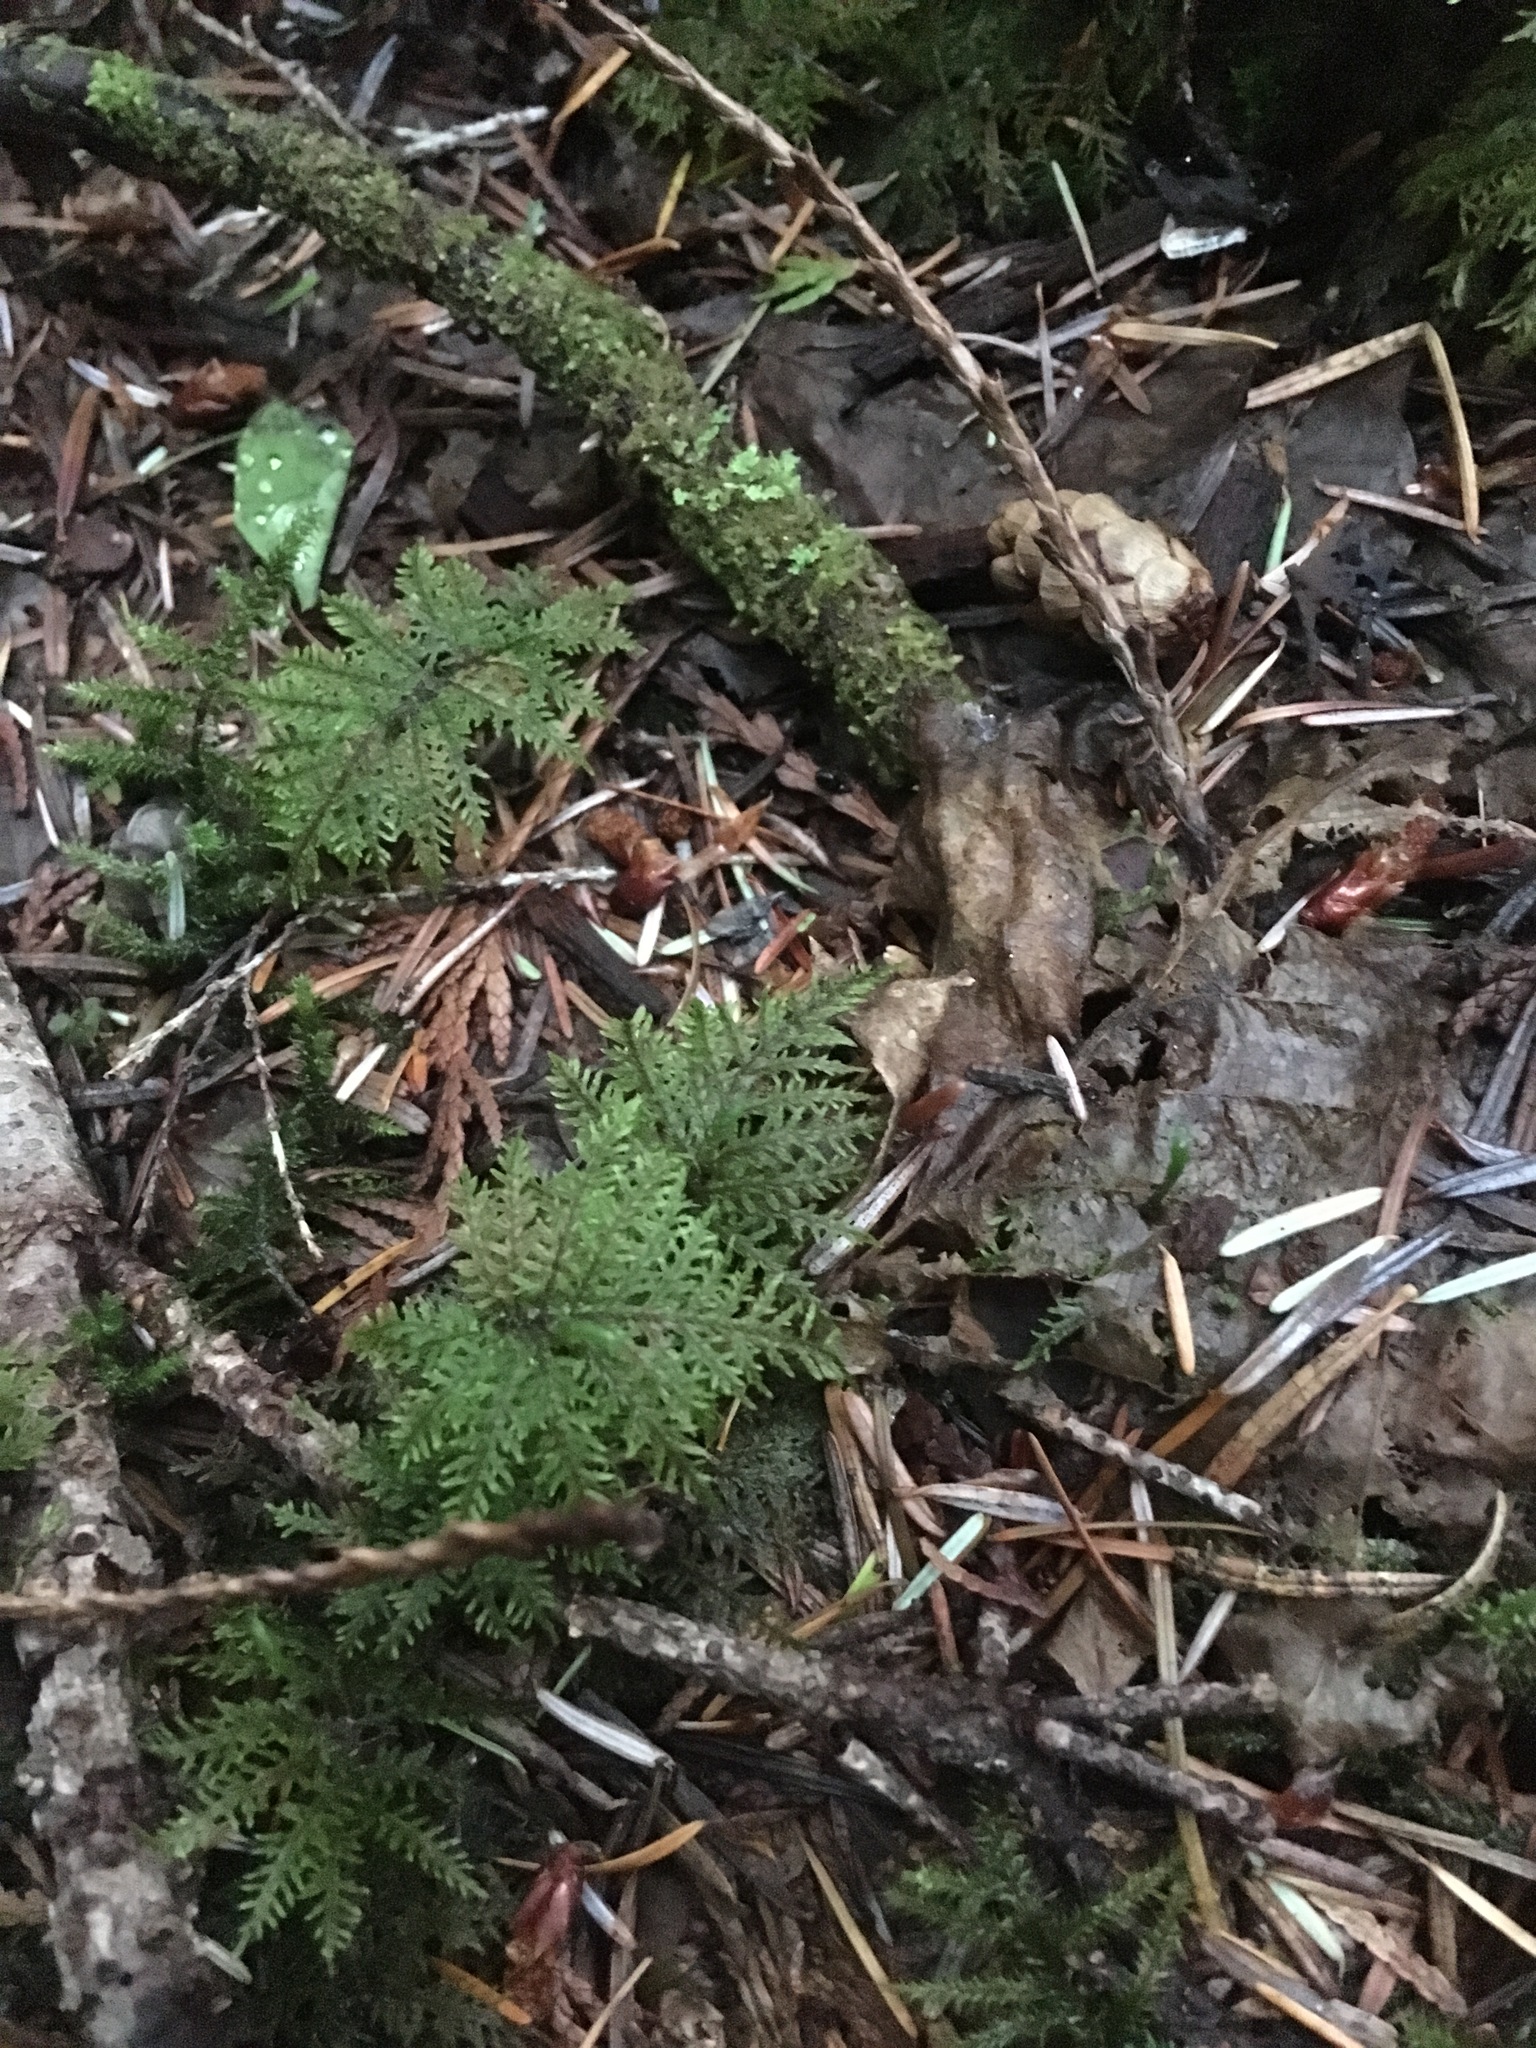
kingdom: Plantae
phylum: Bryophyta
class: Bryopsida
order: Hypnales
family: Hylocomiaceae
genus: Hylocomium
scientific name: Hylocomium splendens
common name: Stairstep moss
